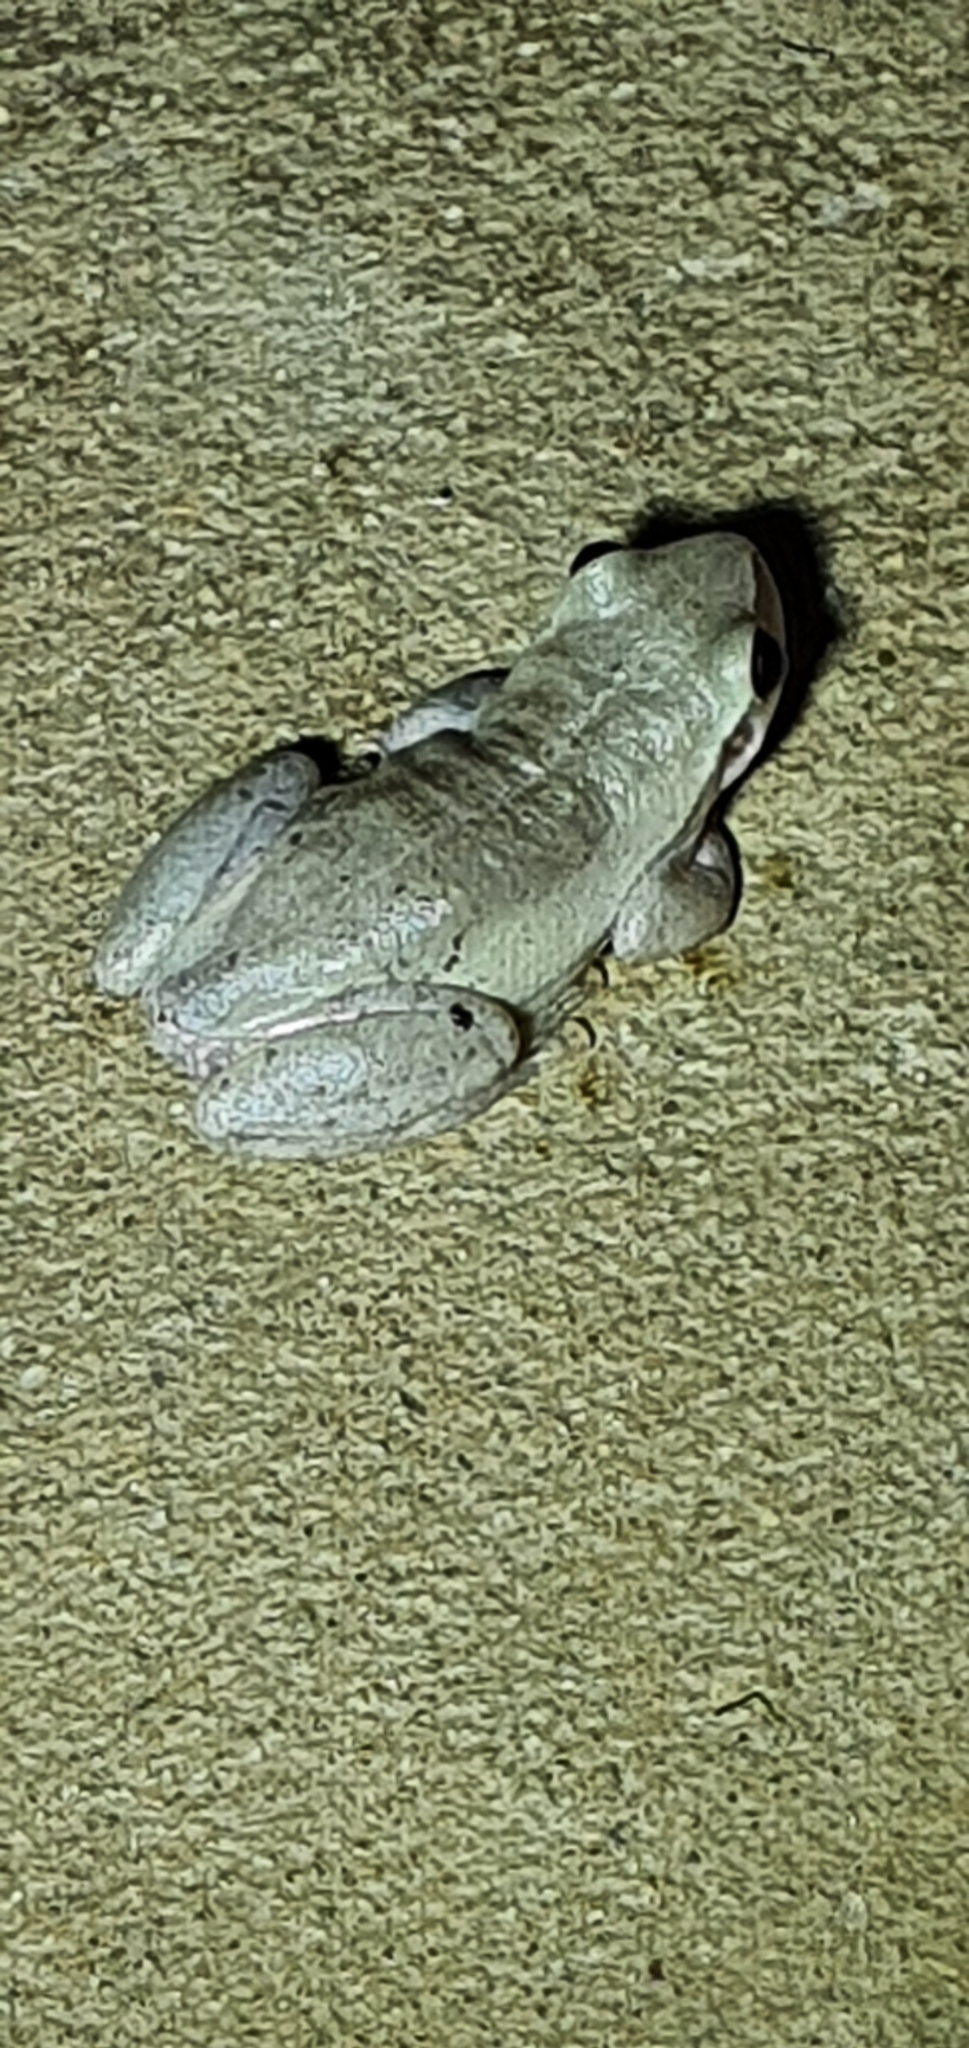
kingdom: Animalia
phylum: Chordata
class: Amphibia
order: Anura
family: Pelodryadidae
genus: Litoria
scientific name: Litoria rubella
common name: Desert tree frog
